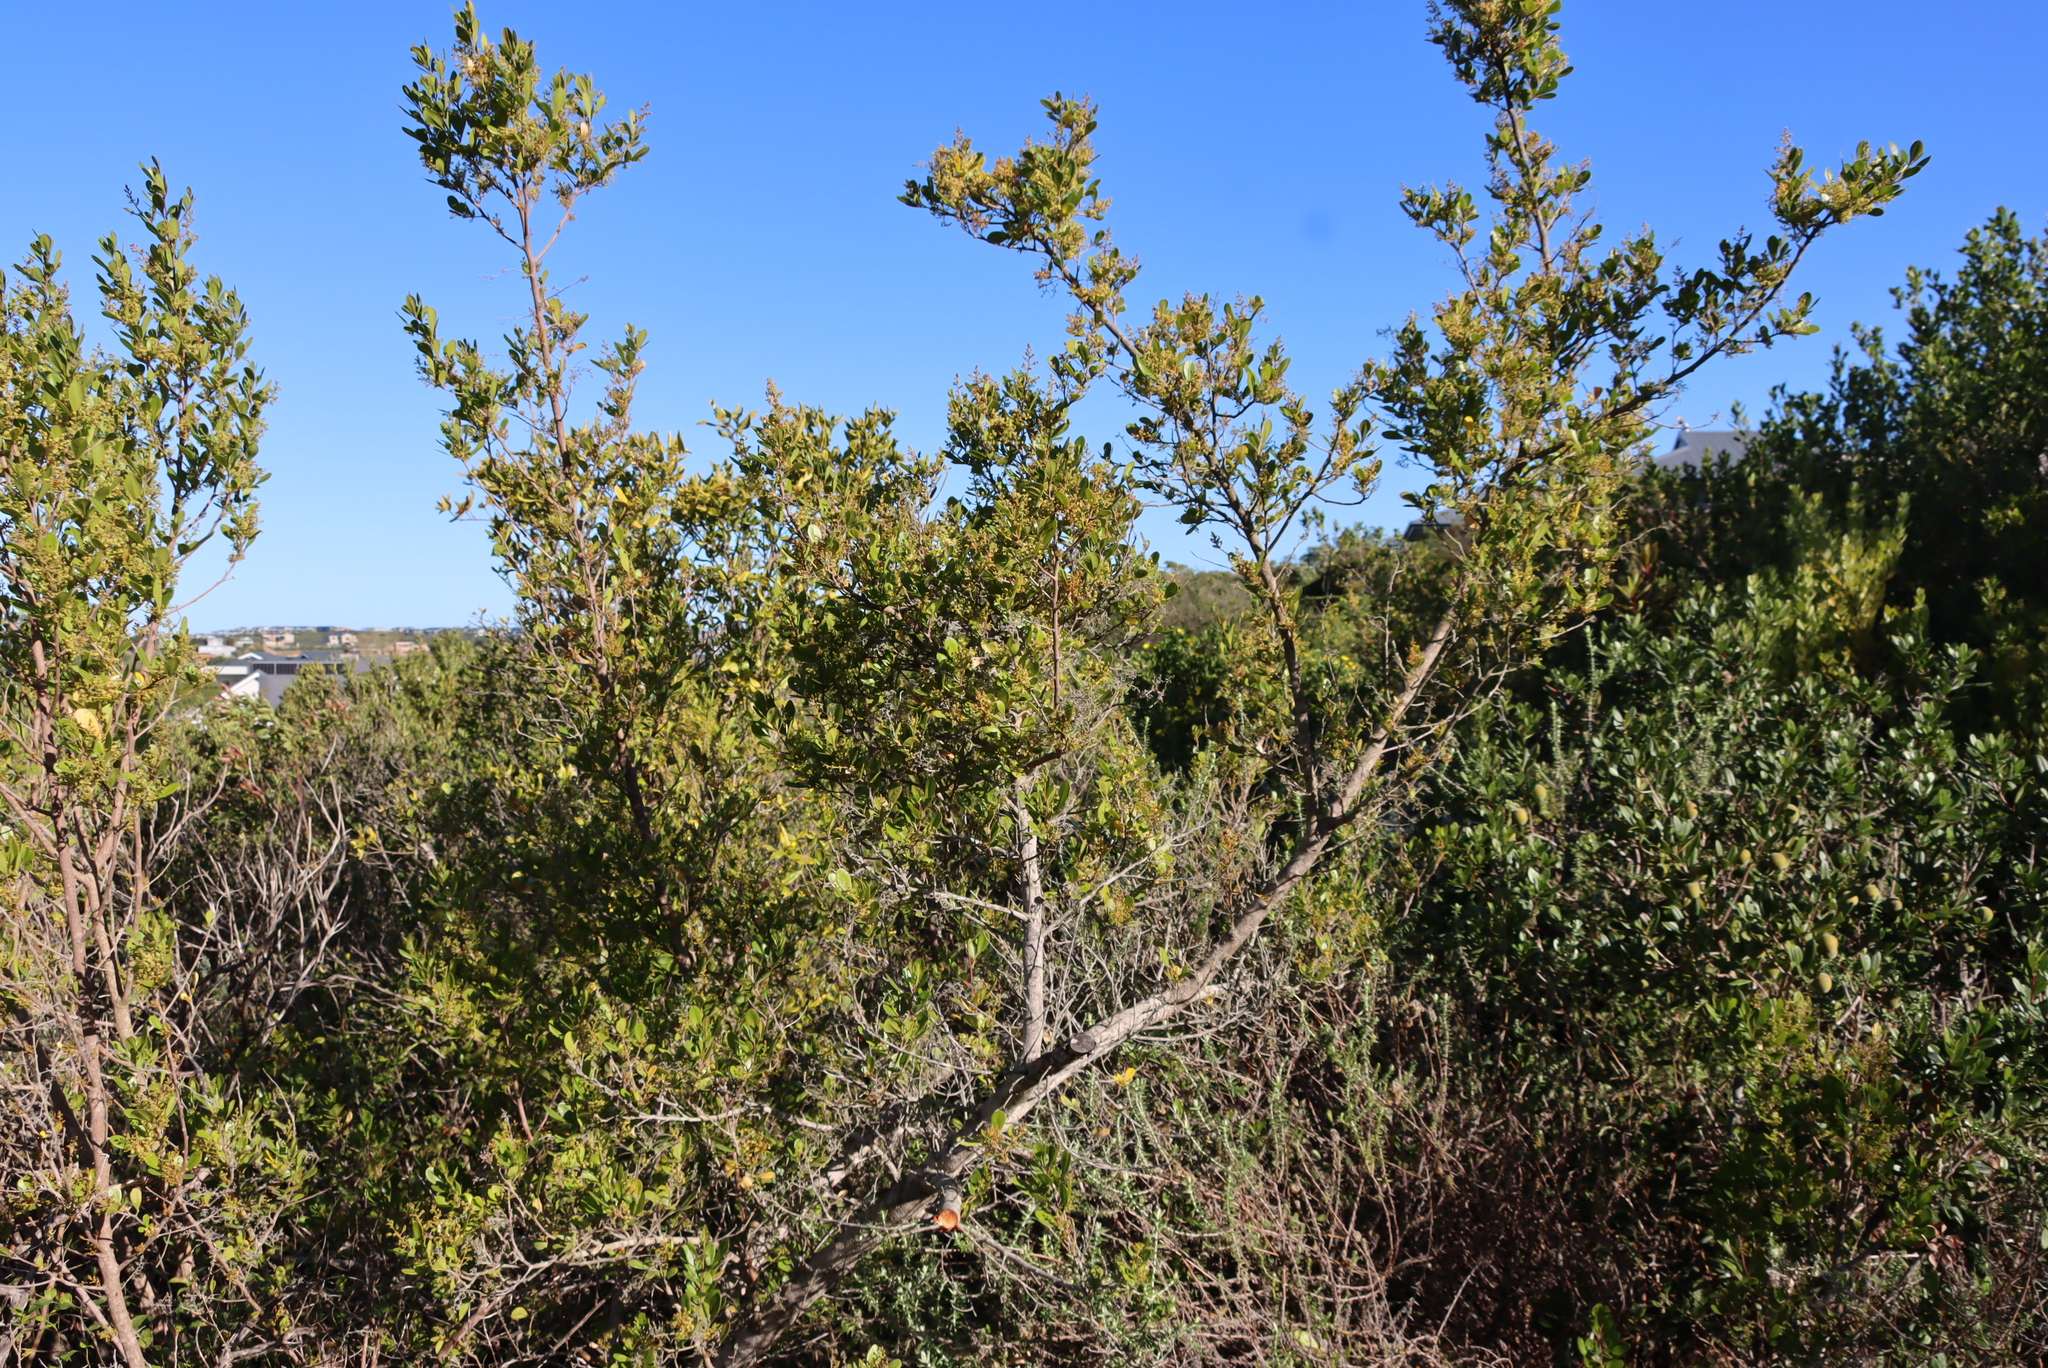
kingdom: Plantae
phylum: Tracheophyta
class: Magnoliopsida
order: Sapindales
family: Anacardiaceae
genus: Searsia
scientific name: Searsia lucida
